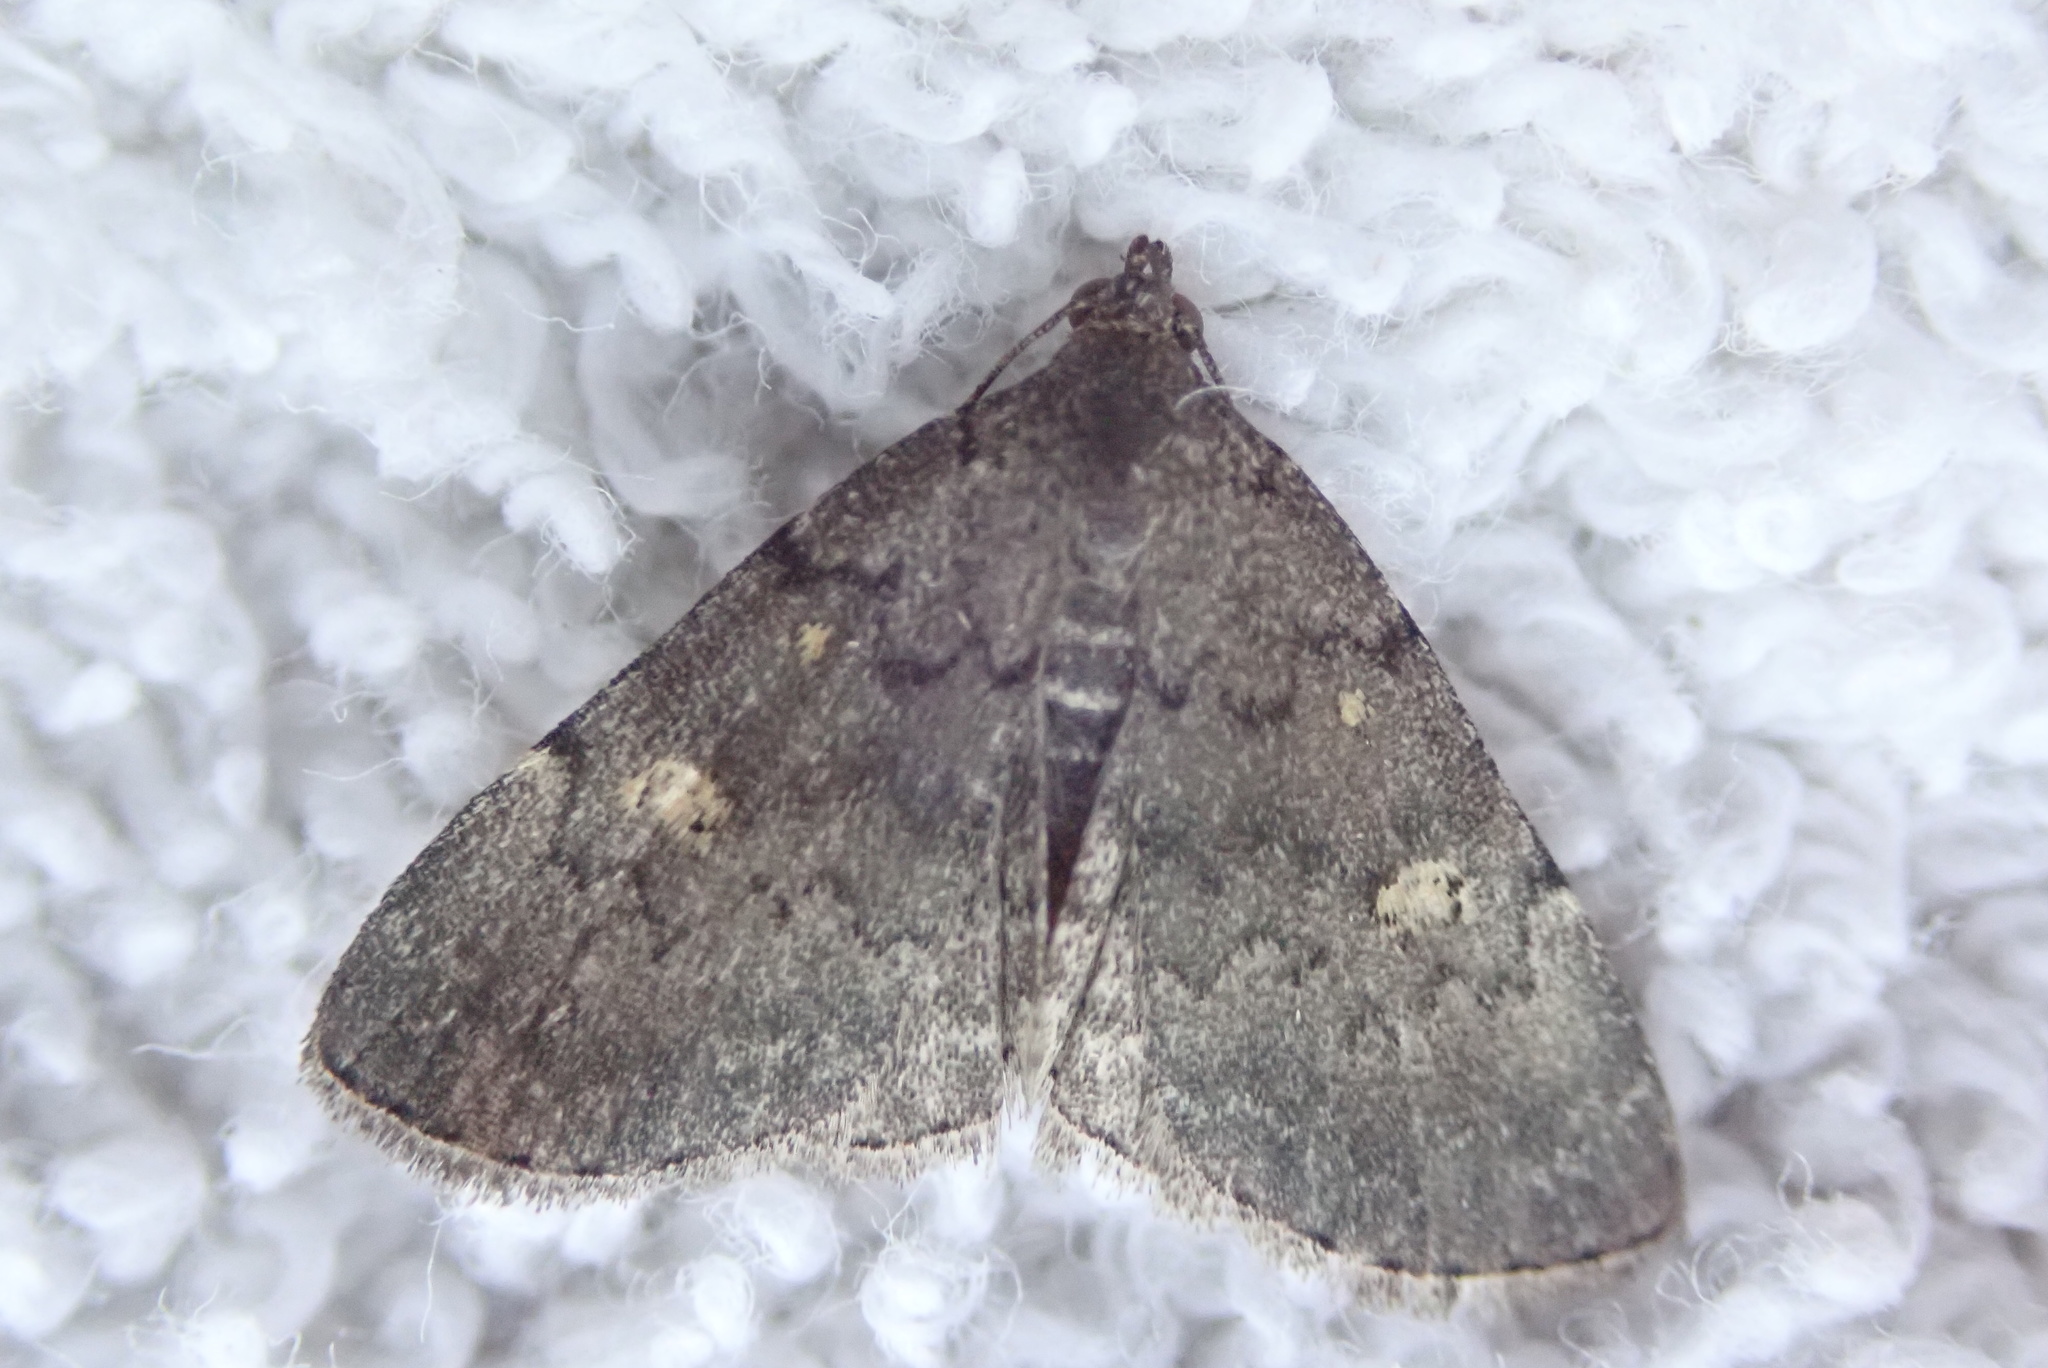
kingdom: Animalia
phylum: Arthropoda
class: Insecta
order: Lepidoptera
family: Erebidae
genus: Idia
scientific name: Idia aemula
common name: Common idia moth
